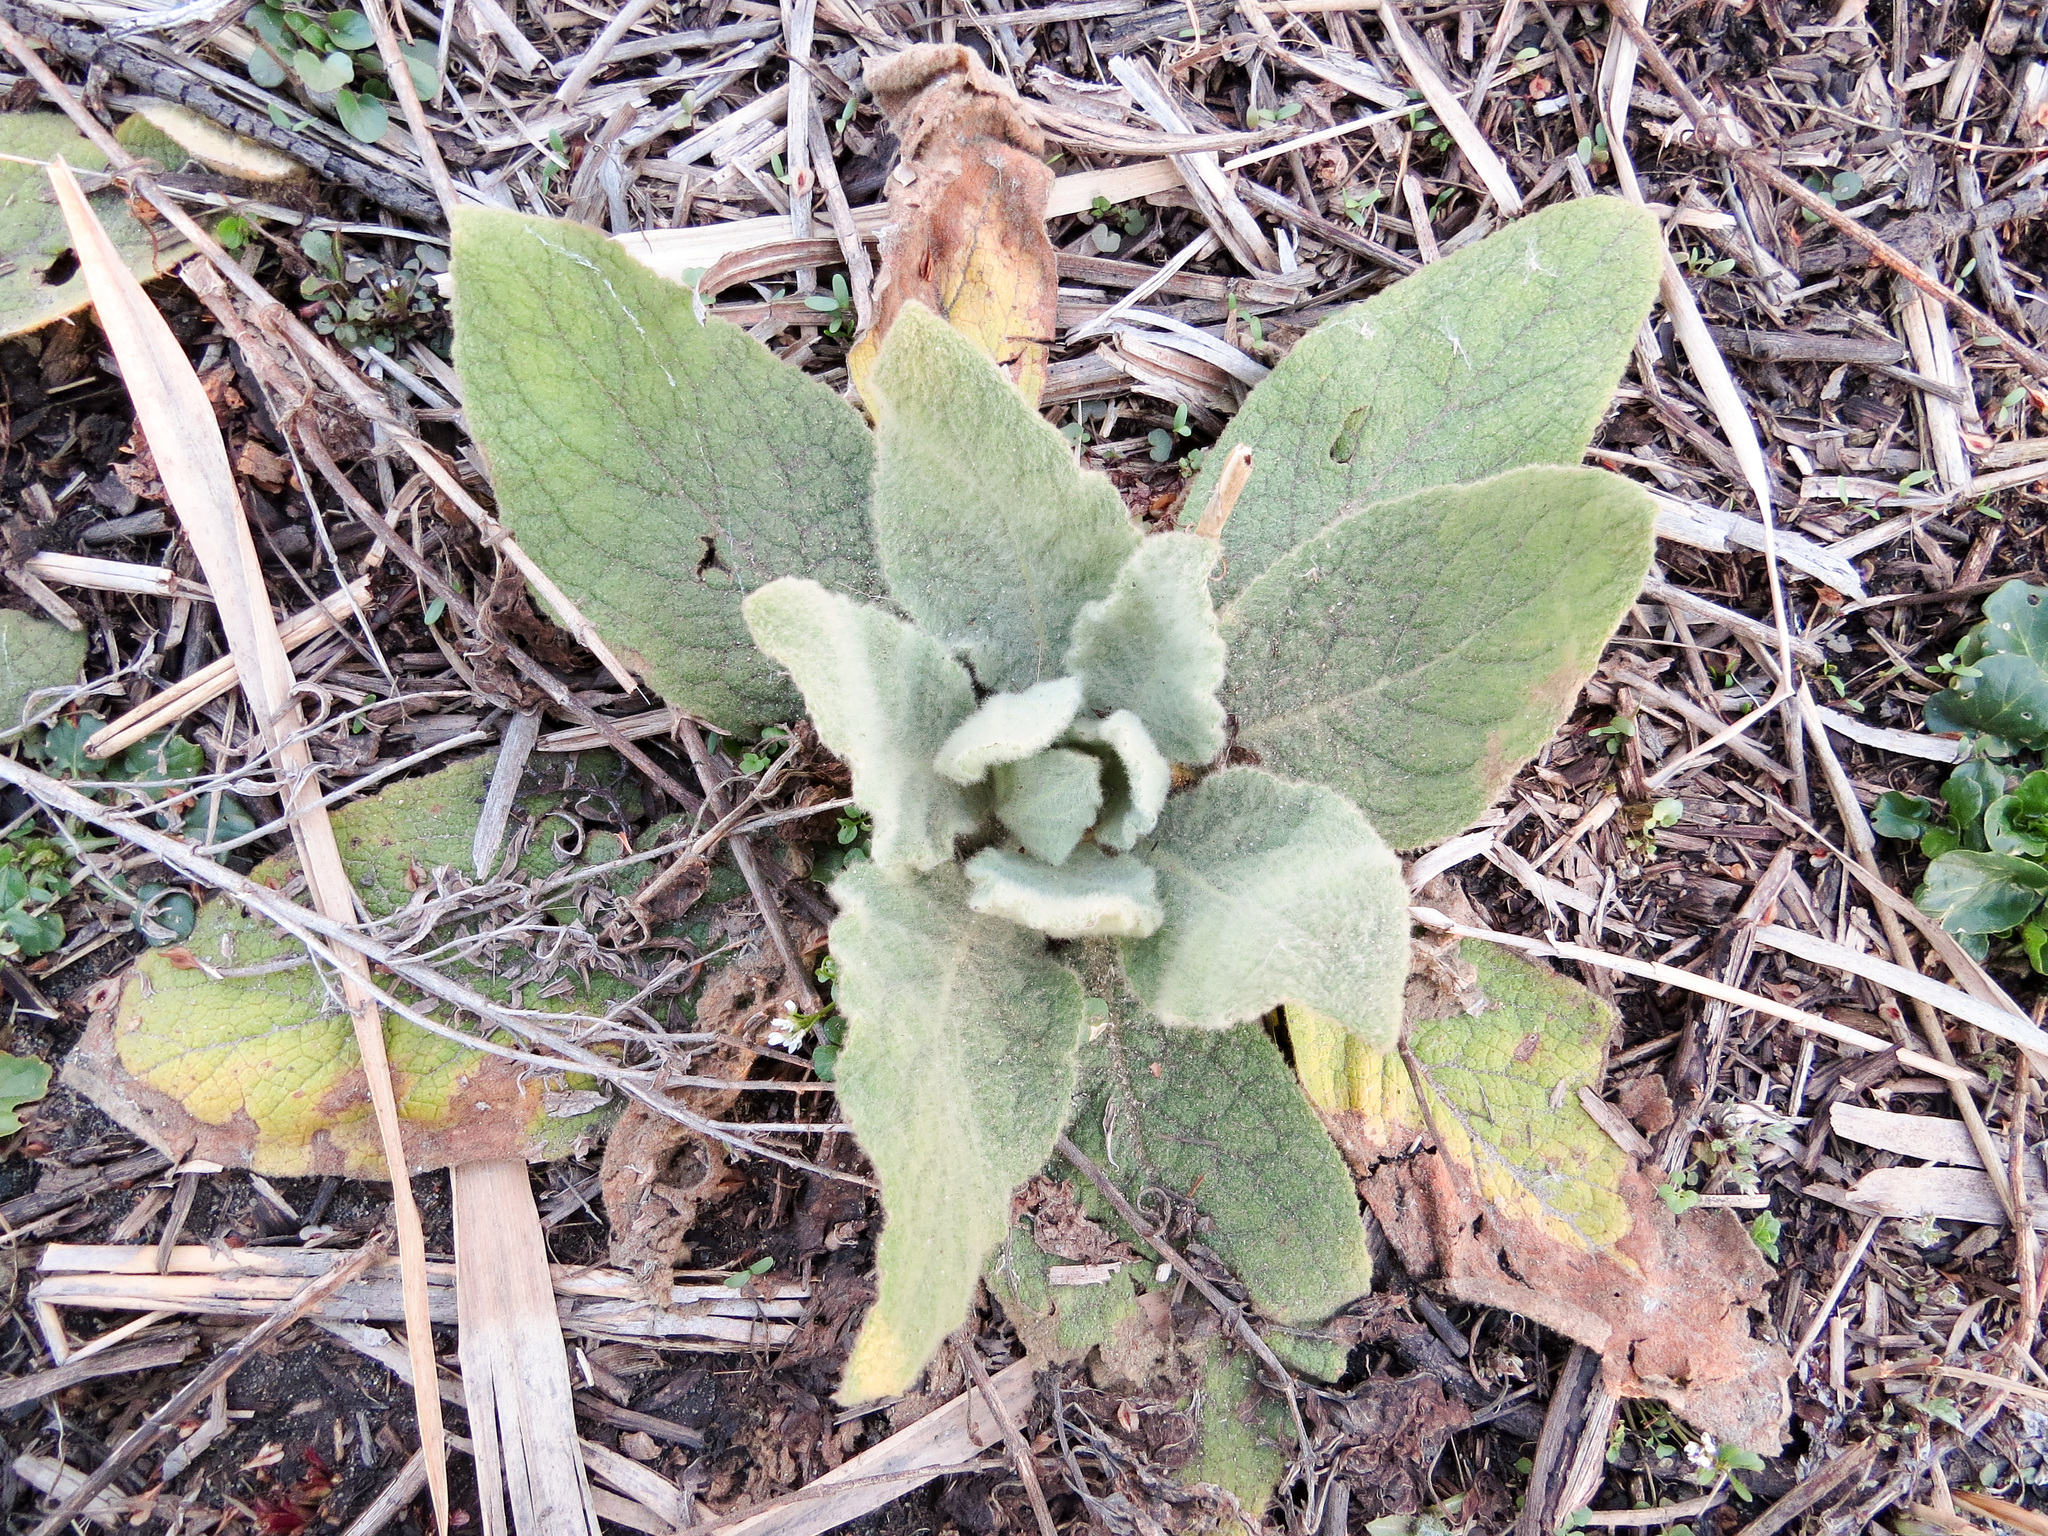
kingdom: Plantae
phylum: Tracheophyta
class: Magnoliopsida
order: Lamiales
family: Scrophulariaceae
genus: Verbascum
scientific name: Verbascum thapsus
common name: Common mullein
